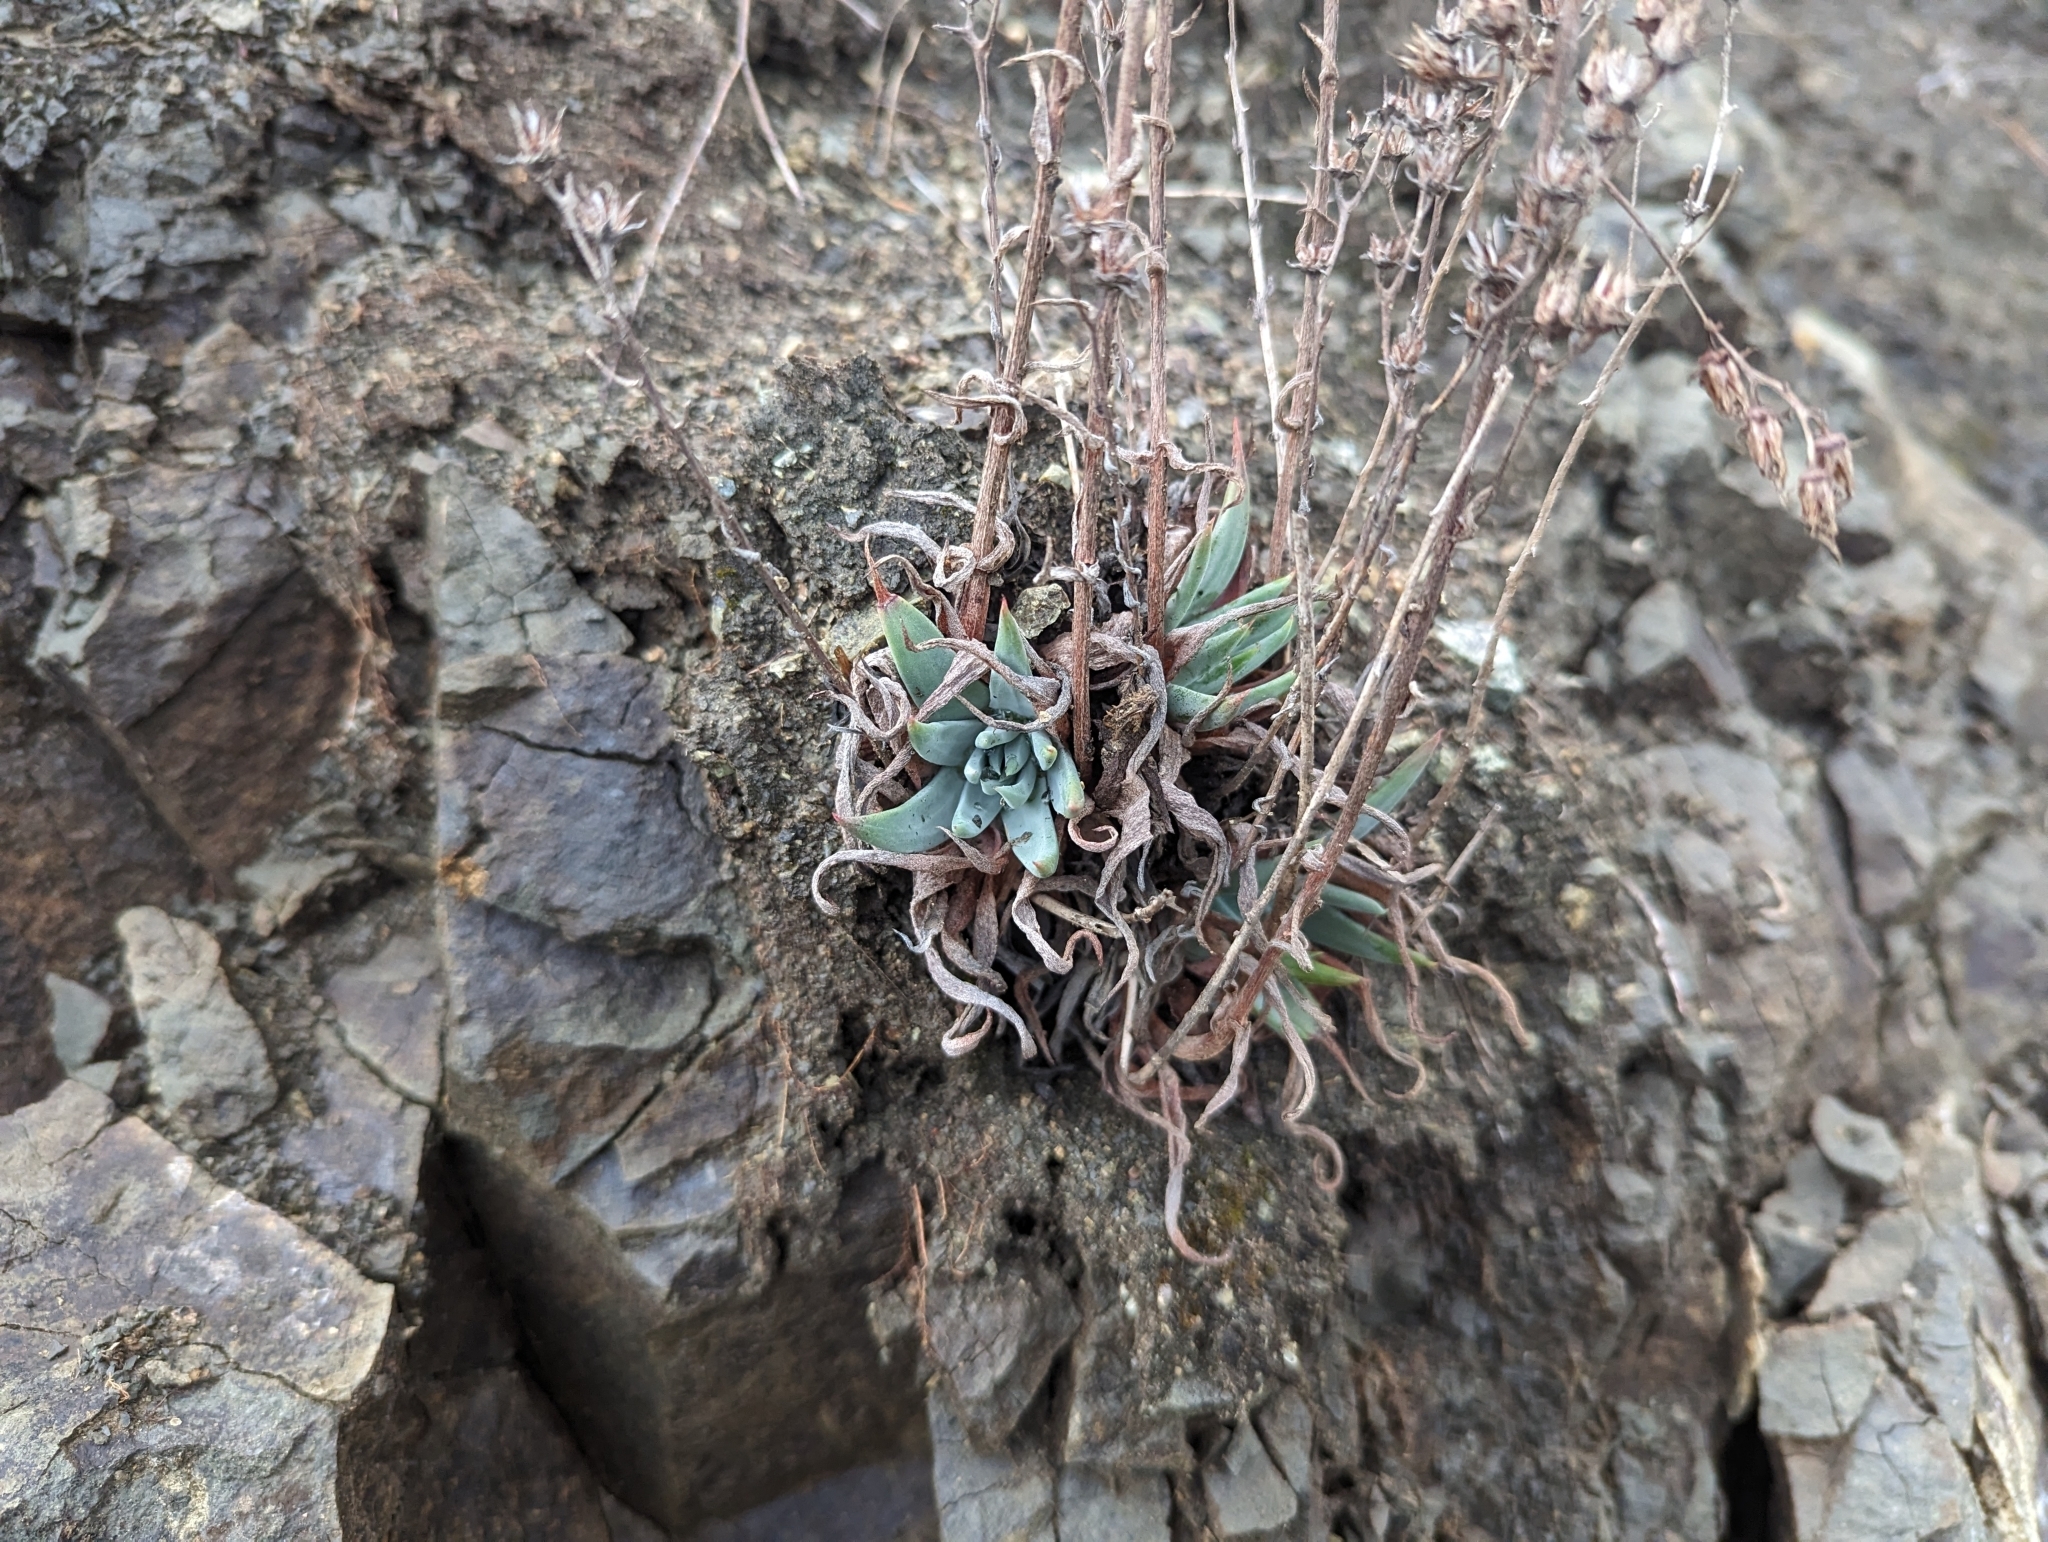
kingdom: Plantae
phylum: Tracheophyta
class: Magnoliopsida
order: Saxifragales
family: Crassulaceae
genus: Dudleya
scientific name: Dudleya abramsii
